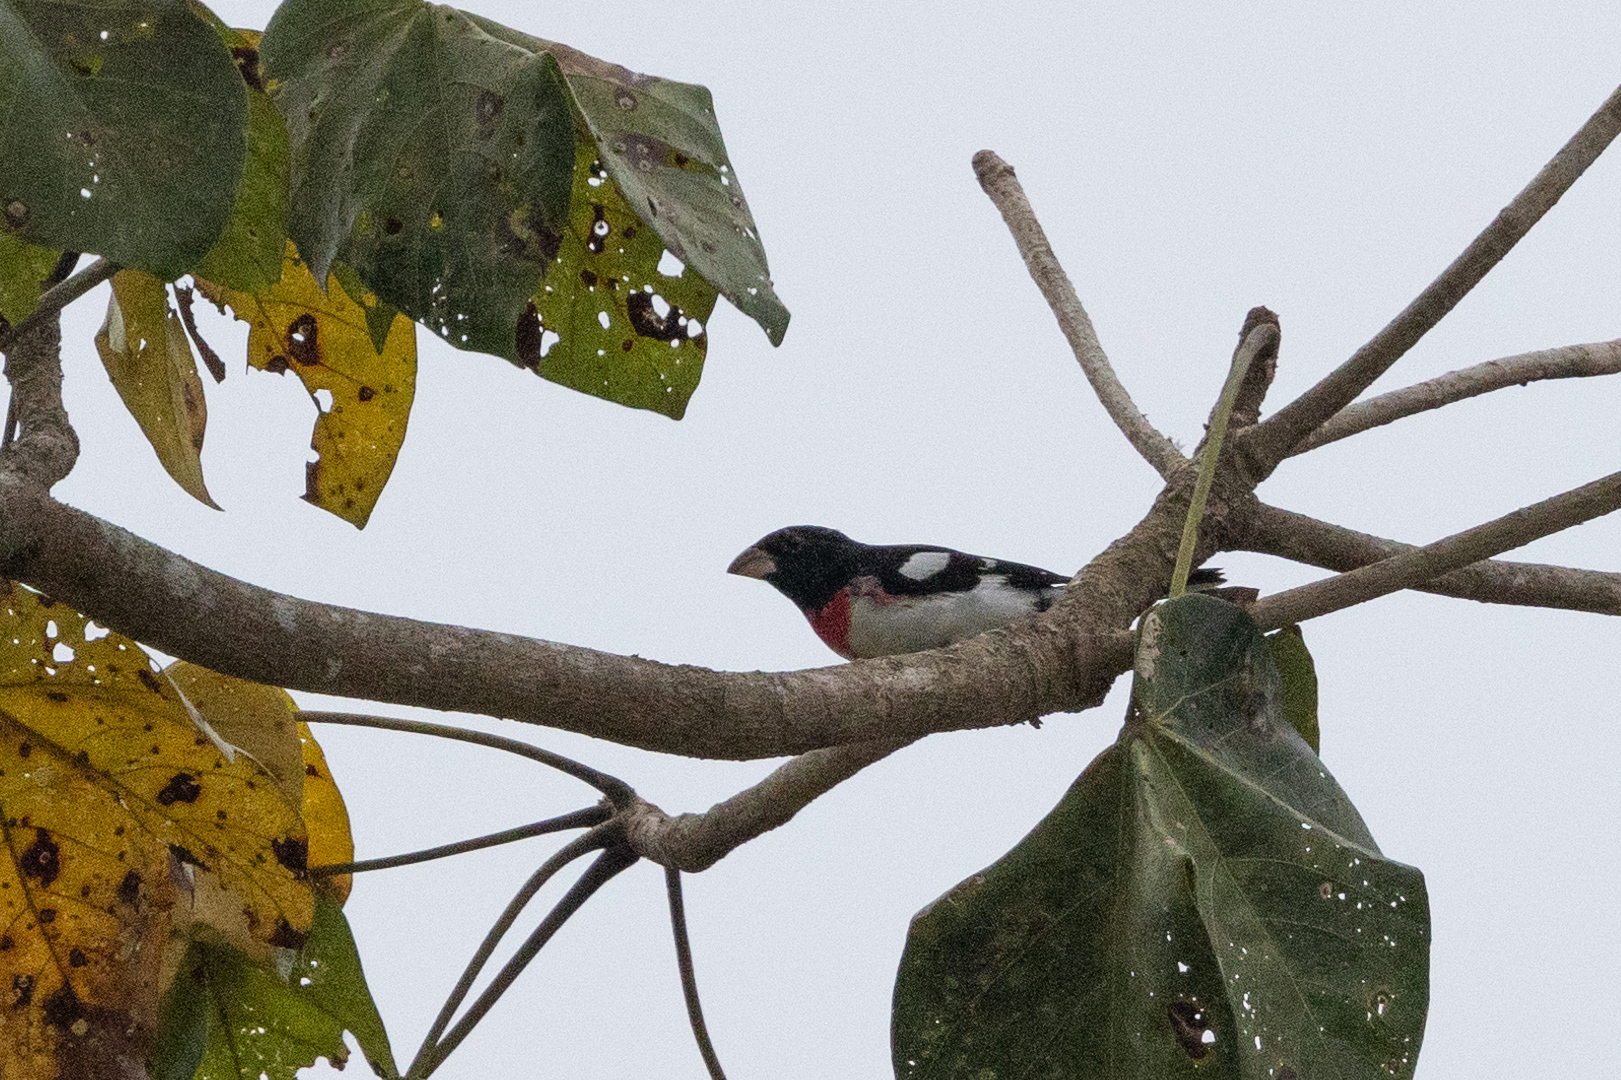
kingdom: Animalia
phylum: Chordata
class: Aves
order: Passeriformes
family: Cardinalidae
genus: Pheucticus
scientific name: Pheucticus ludovicianus
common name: Rose-breasted grosbeak
